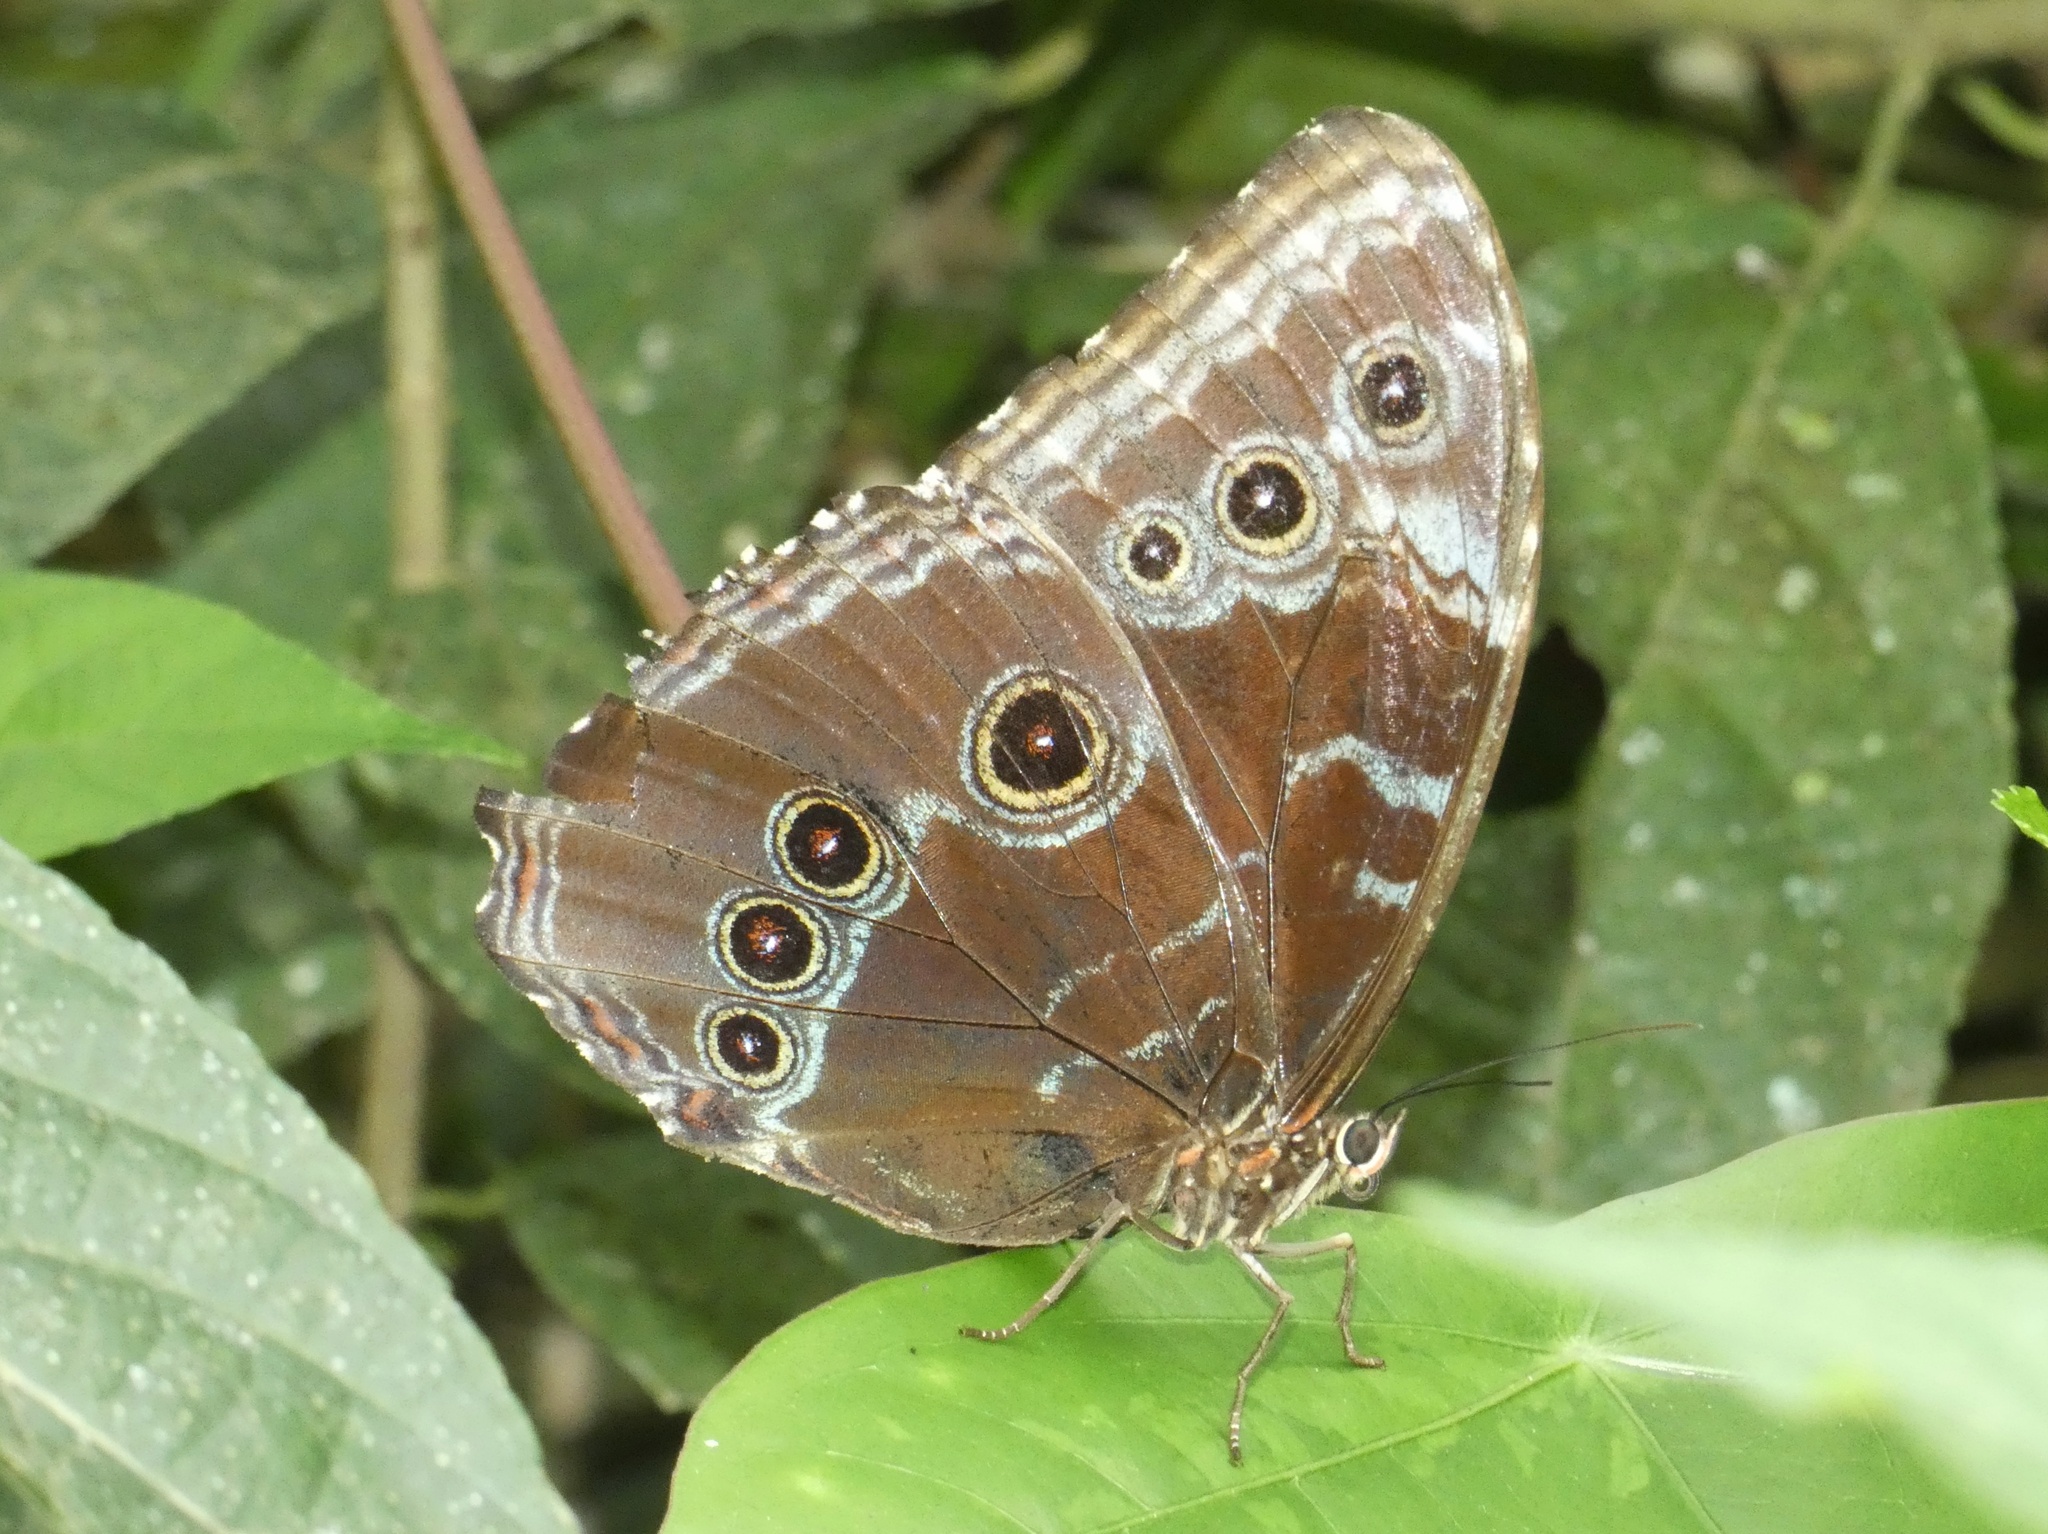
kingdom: Animalia
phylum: Arthropoda
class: Insecta
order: Lepidoptera
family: Nymphalidae
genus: Morpho
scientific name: Morpho helenor
